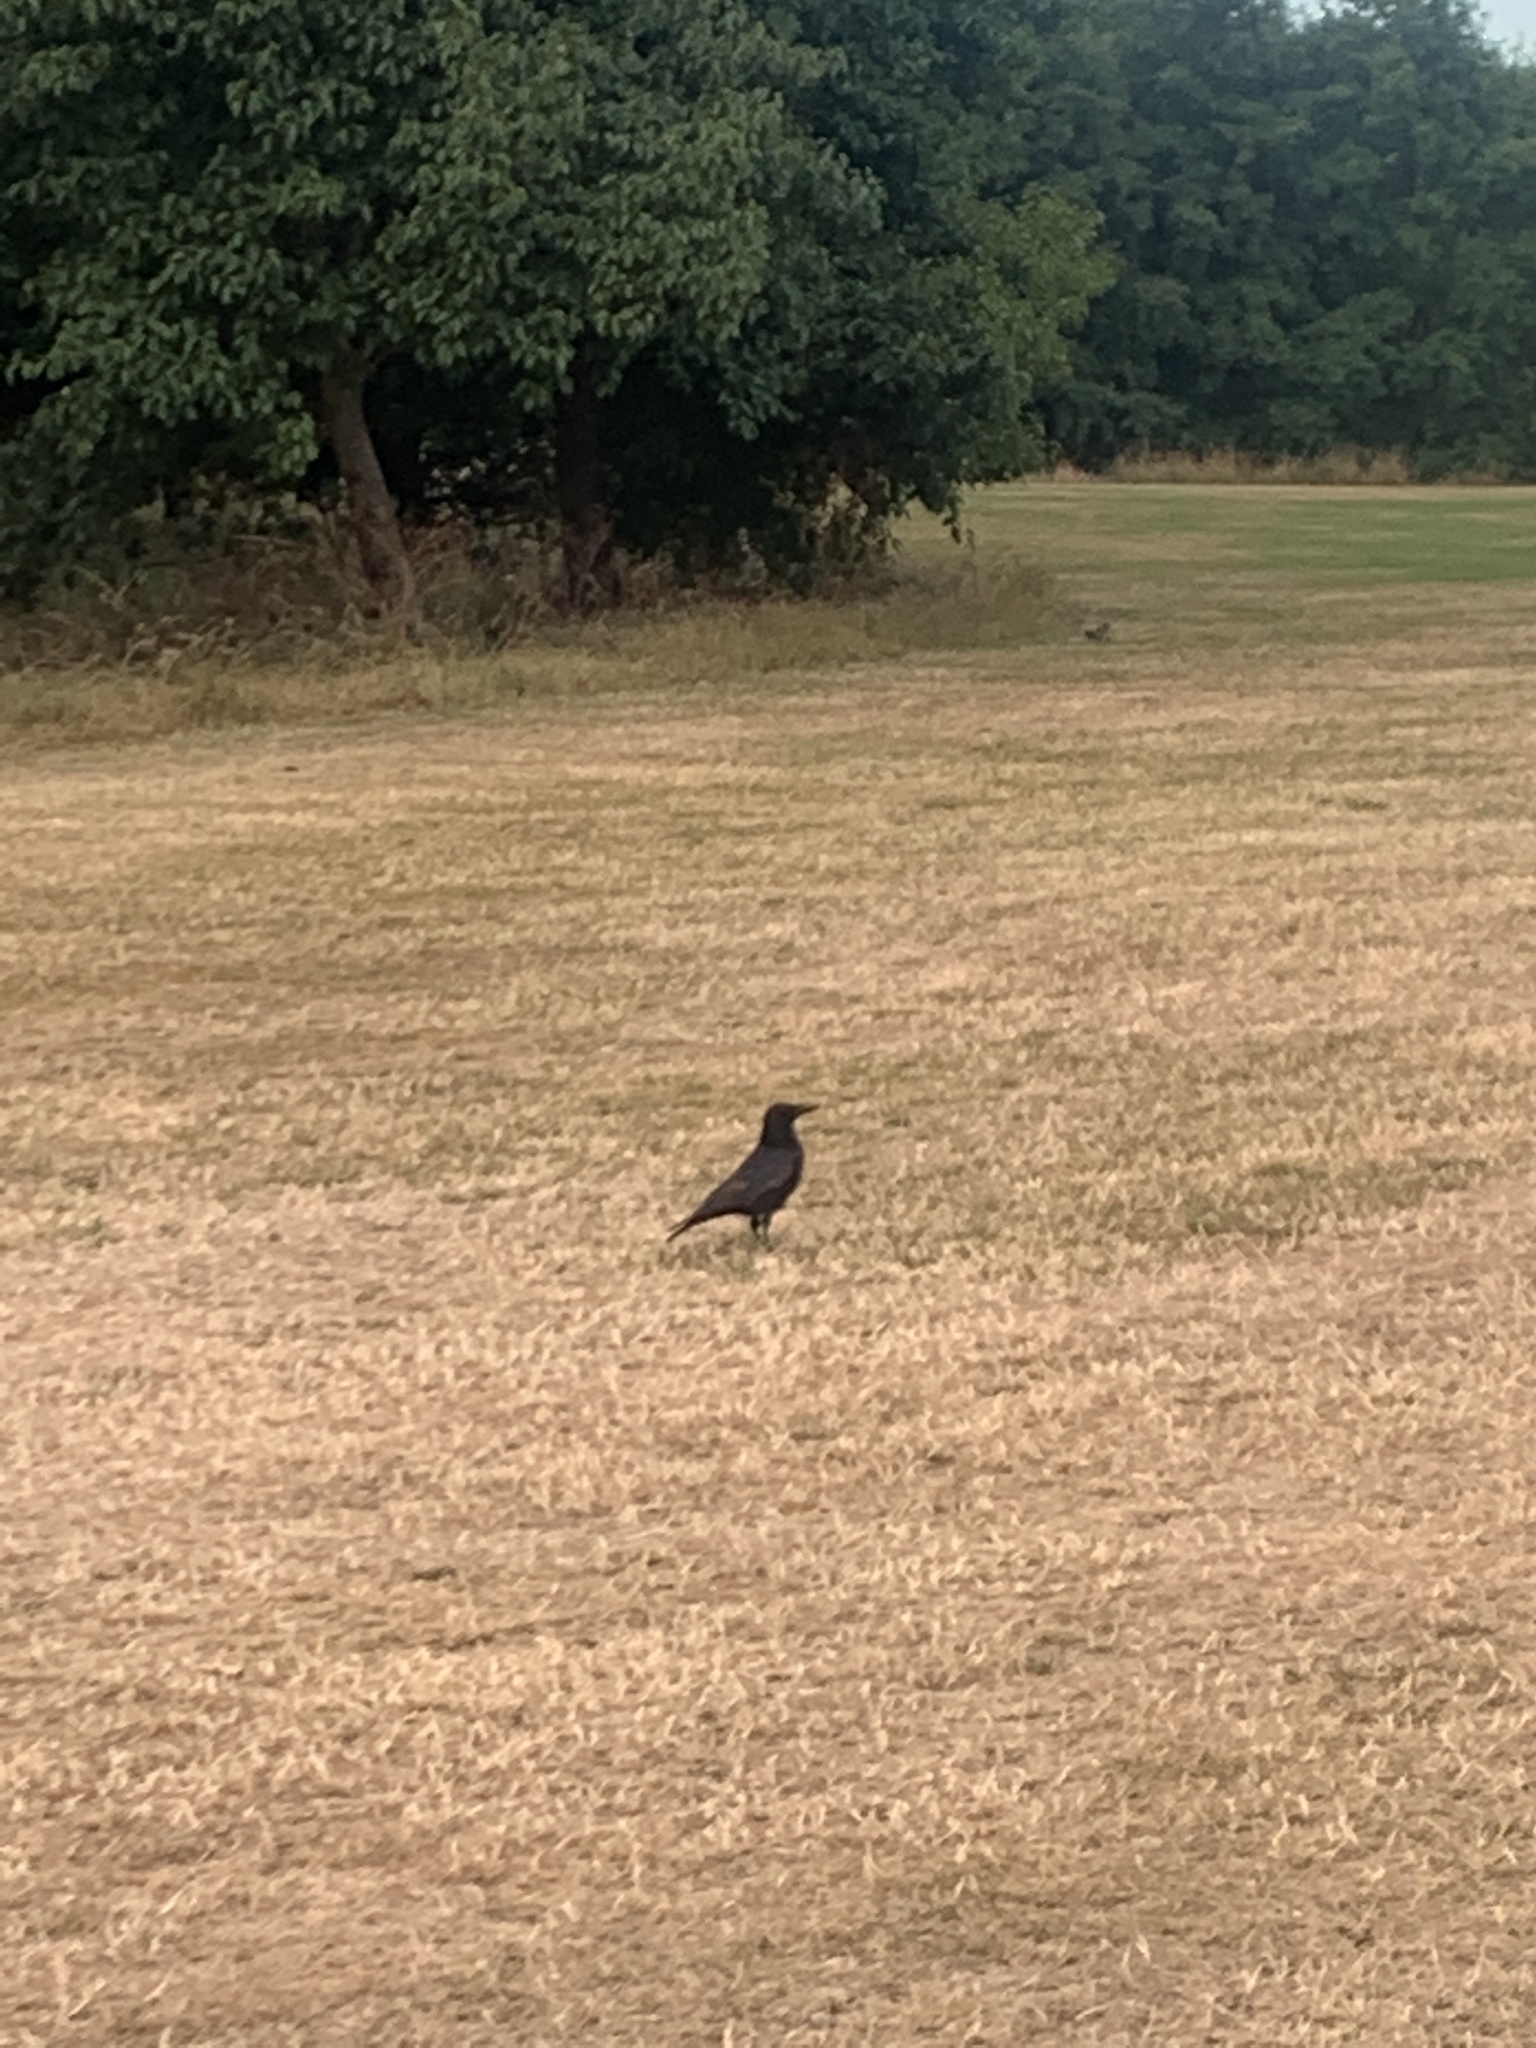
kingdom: Animalia
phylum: Chordata
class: Aves
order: Passeriformes
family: Corvidae
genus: Corvus
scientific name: Corvus corone
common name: Carrion crow
